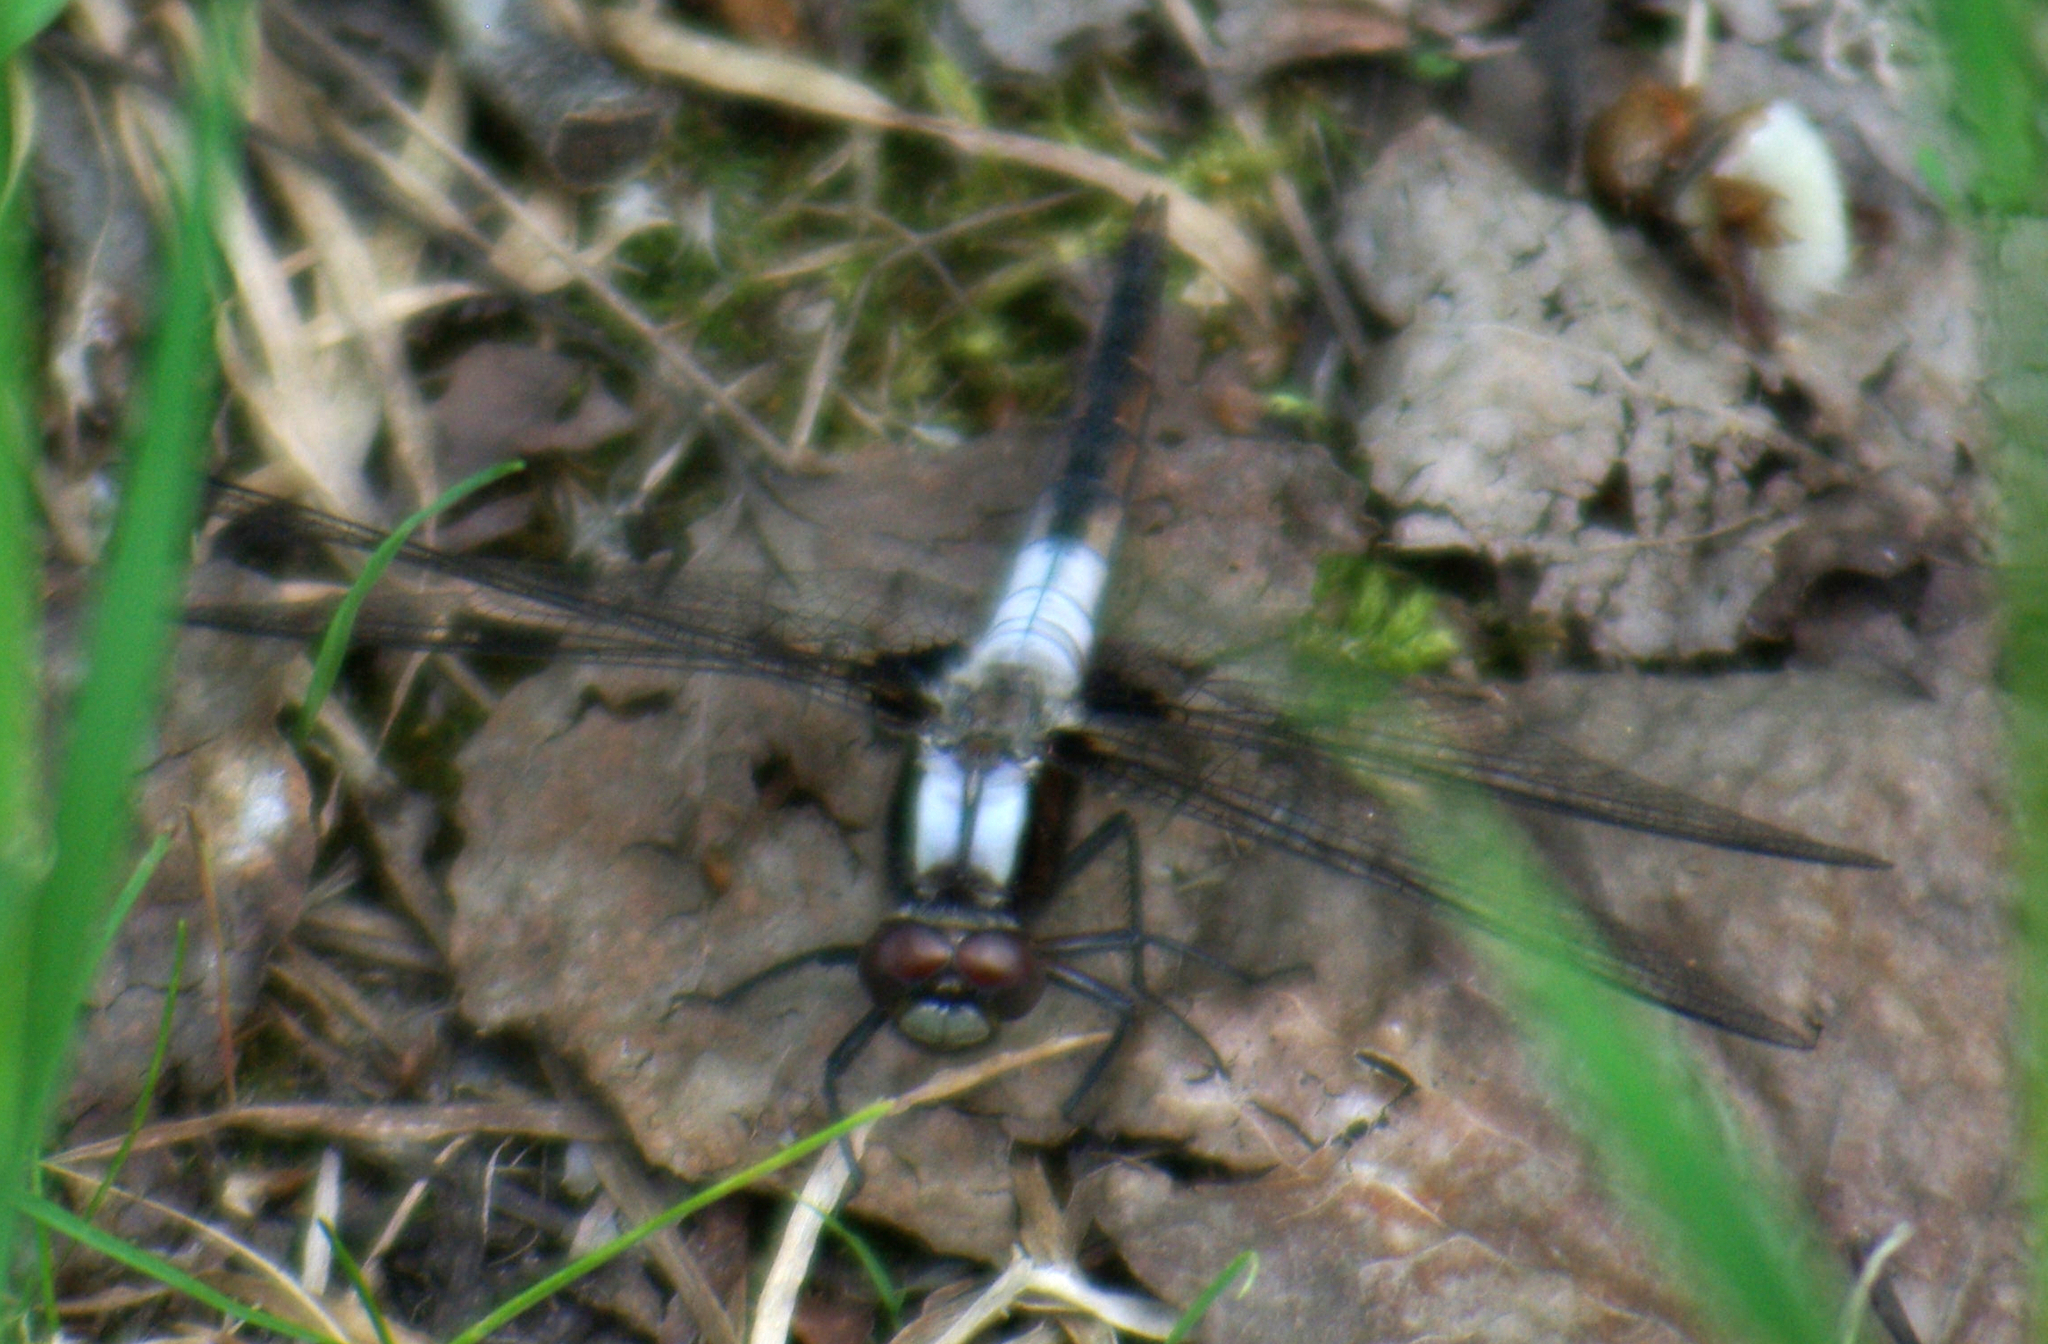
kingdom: Animalia
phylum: Arthropoda
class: Insecta
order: Odonata
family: Libellulidae
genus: Ladona
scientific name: Ladona julia
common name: Chalk-fronted corporal
